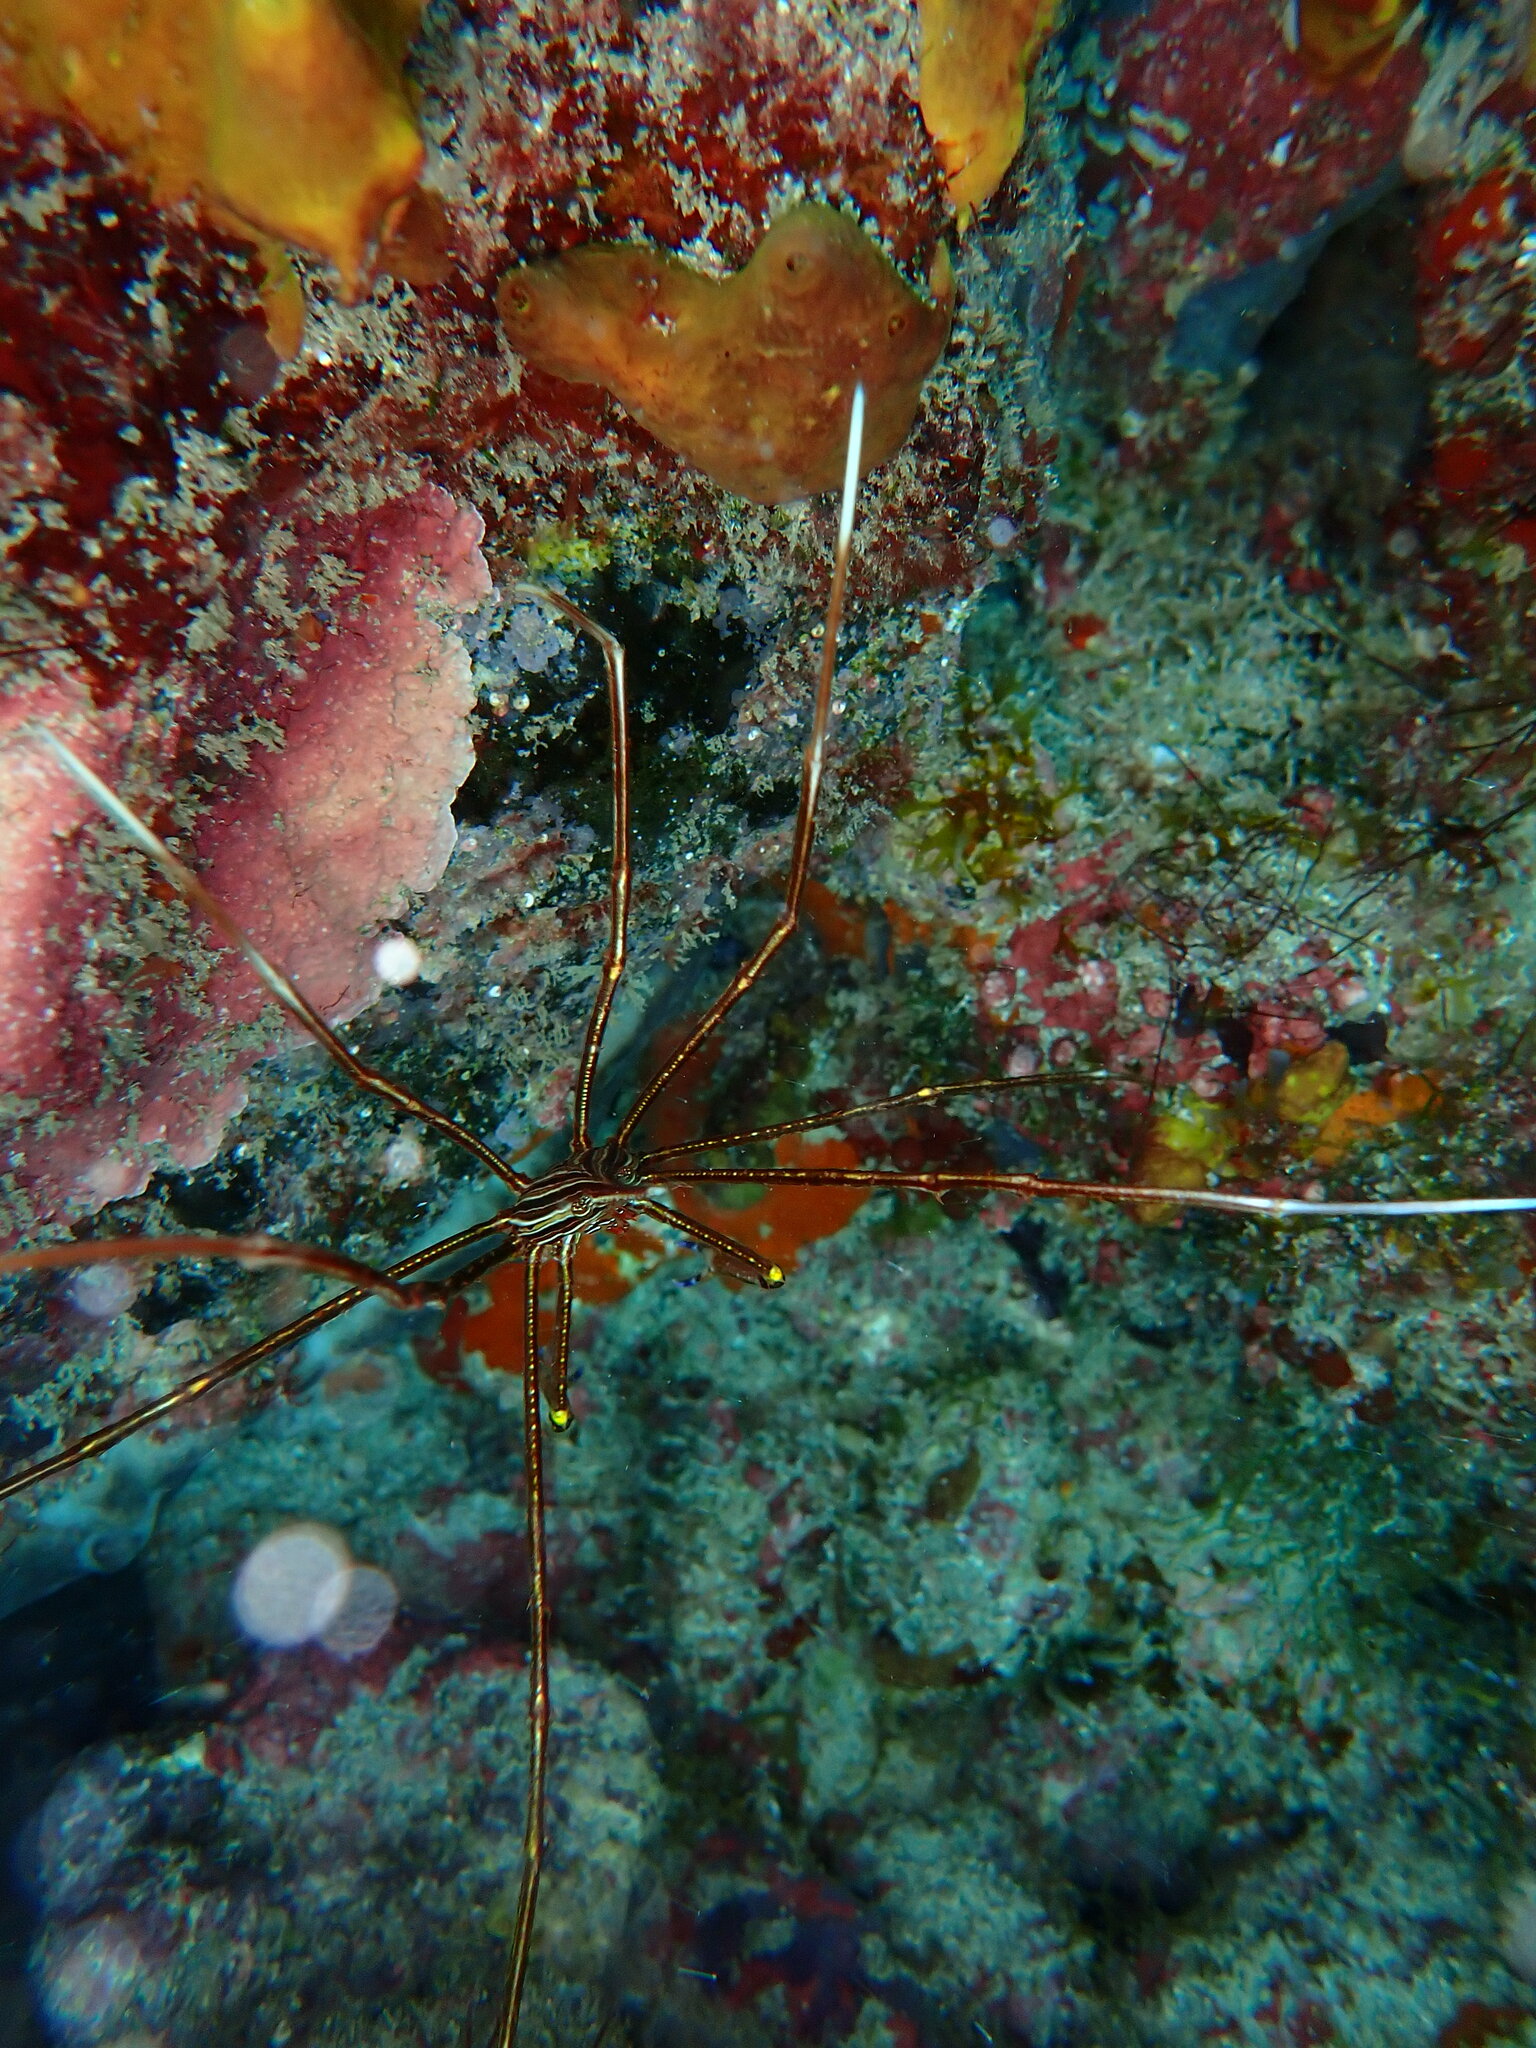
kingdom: Animalia
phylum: Arthropoda
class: Malacostraca
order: Decapoda
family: Inachoididae
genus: Stenorhynchus
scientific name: Stenorhynchus lanceolatus
